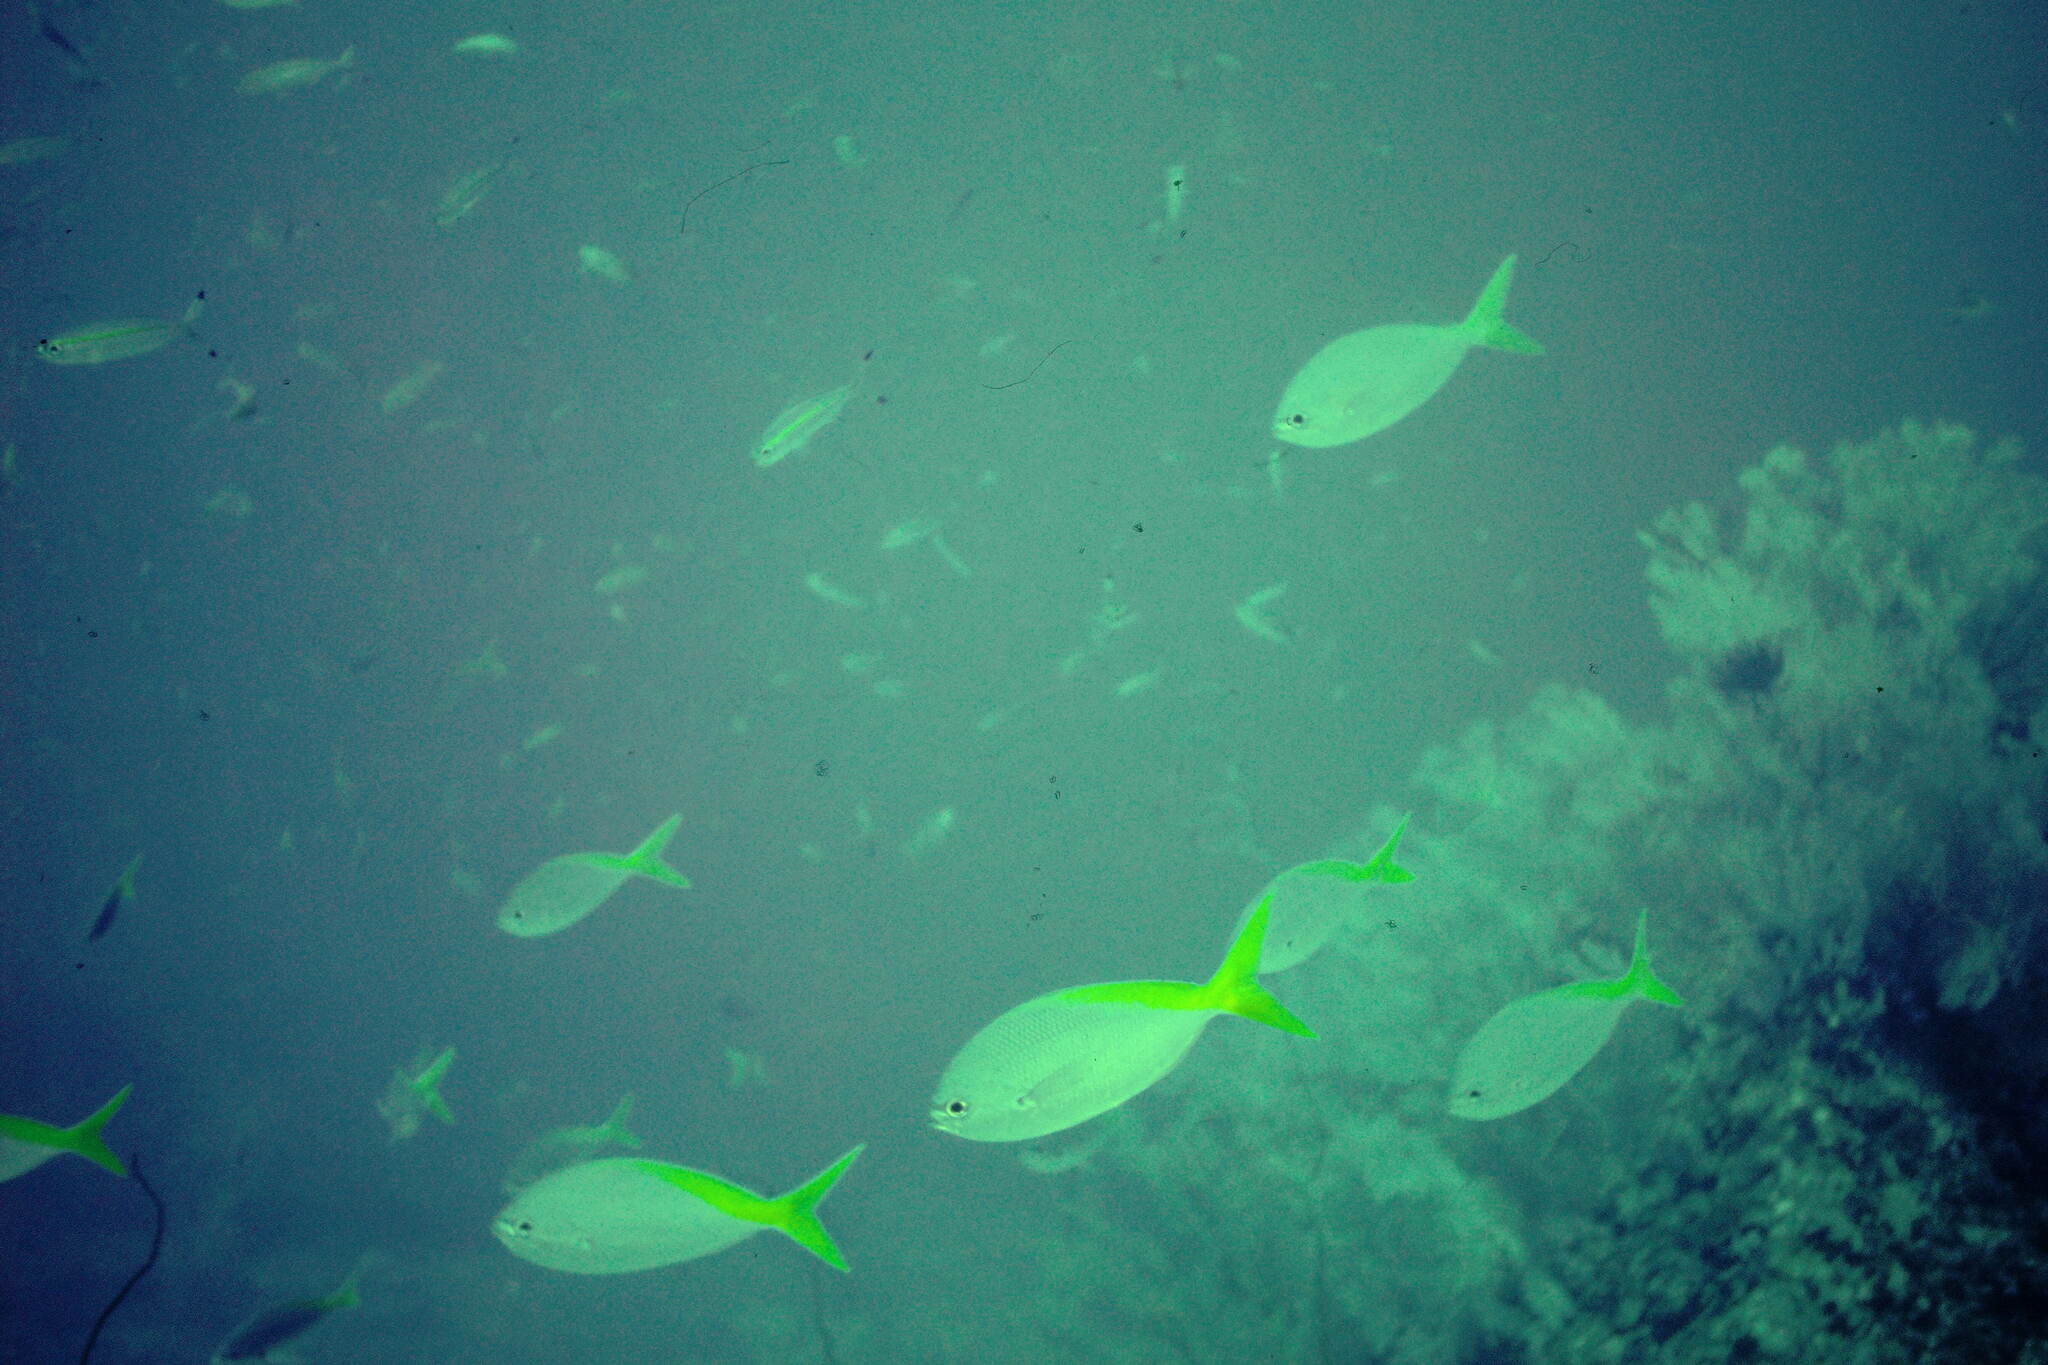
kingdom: Animalia
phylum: Chordata
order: Perciformes
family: Caesionidae
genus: Caesio
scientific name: Caesio cuning
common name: Red-bellied fusilier
